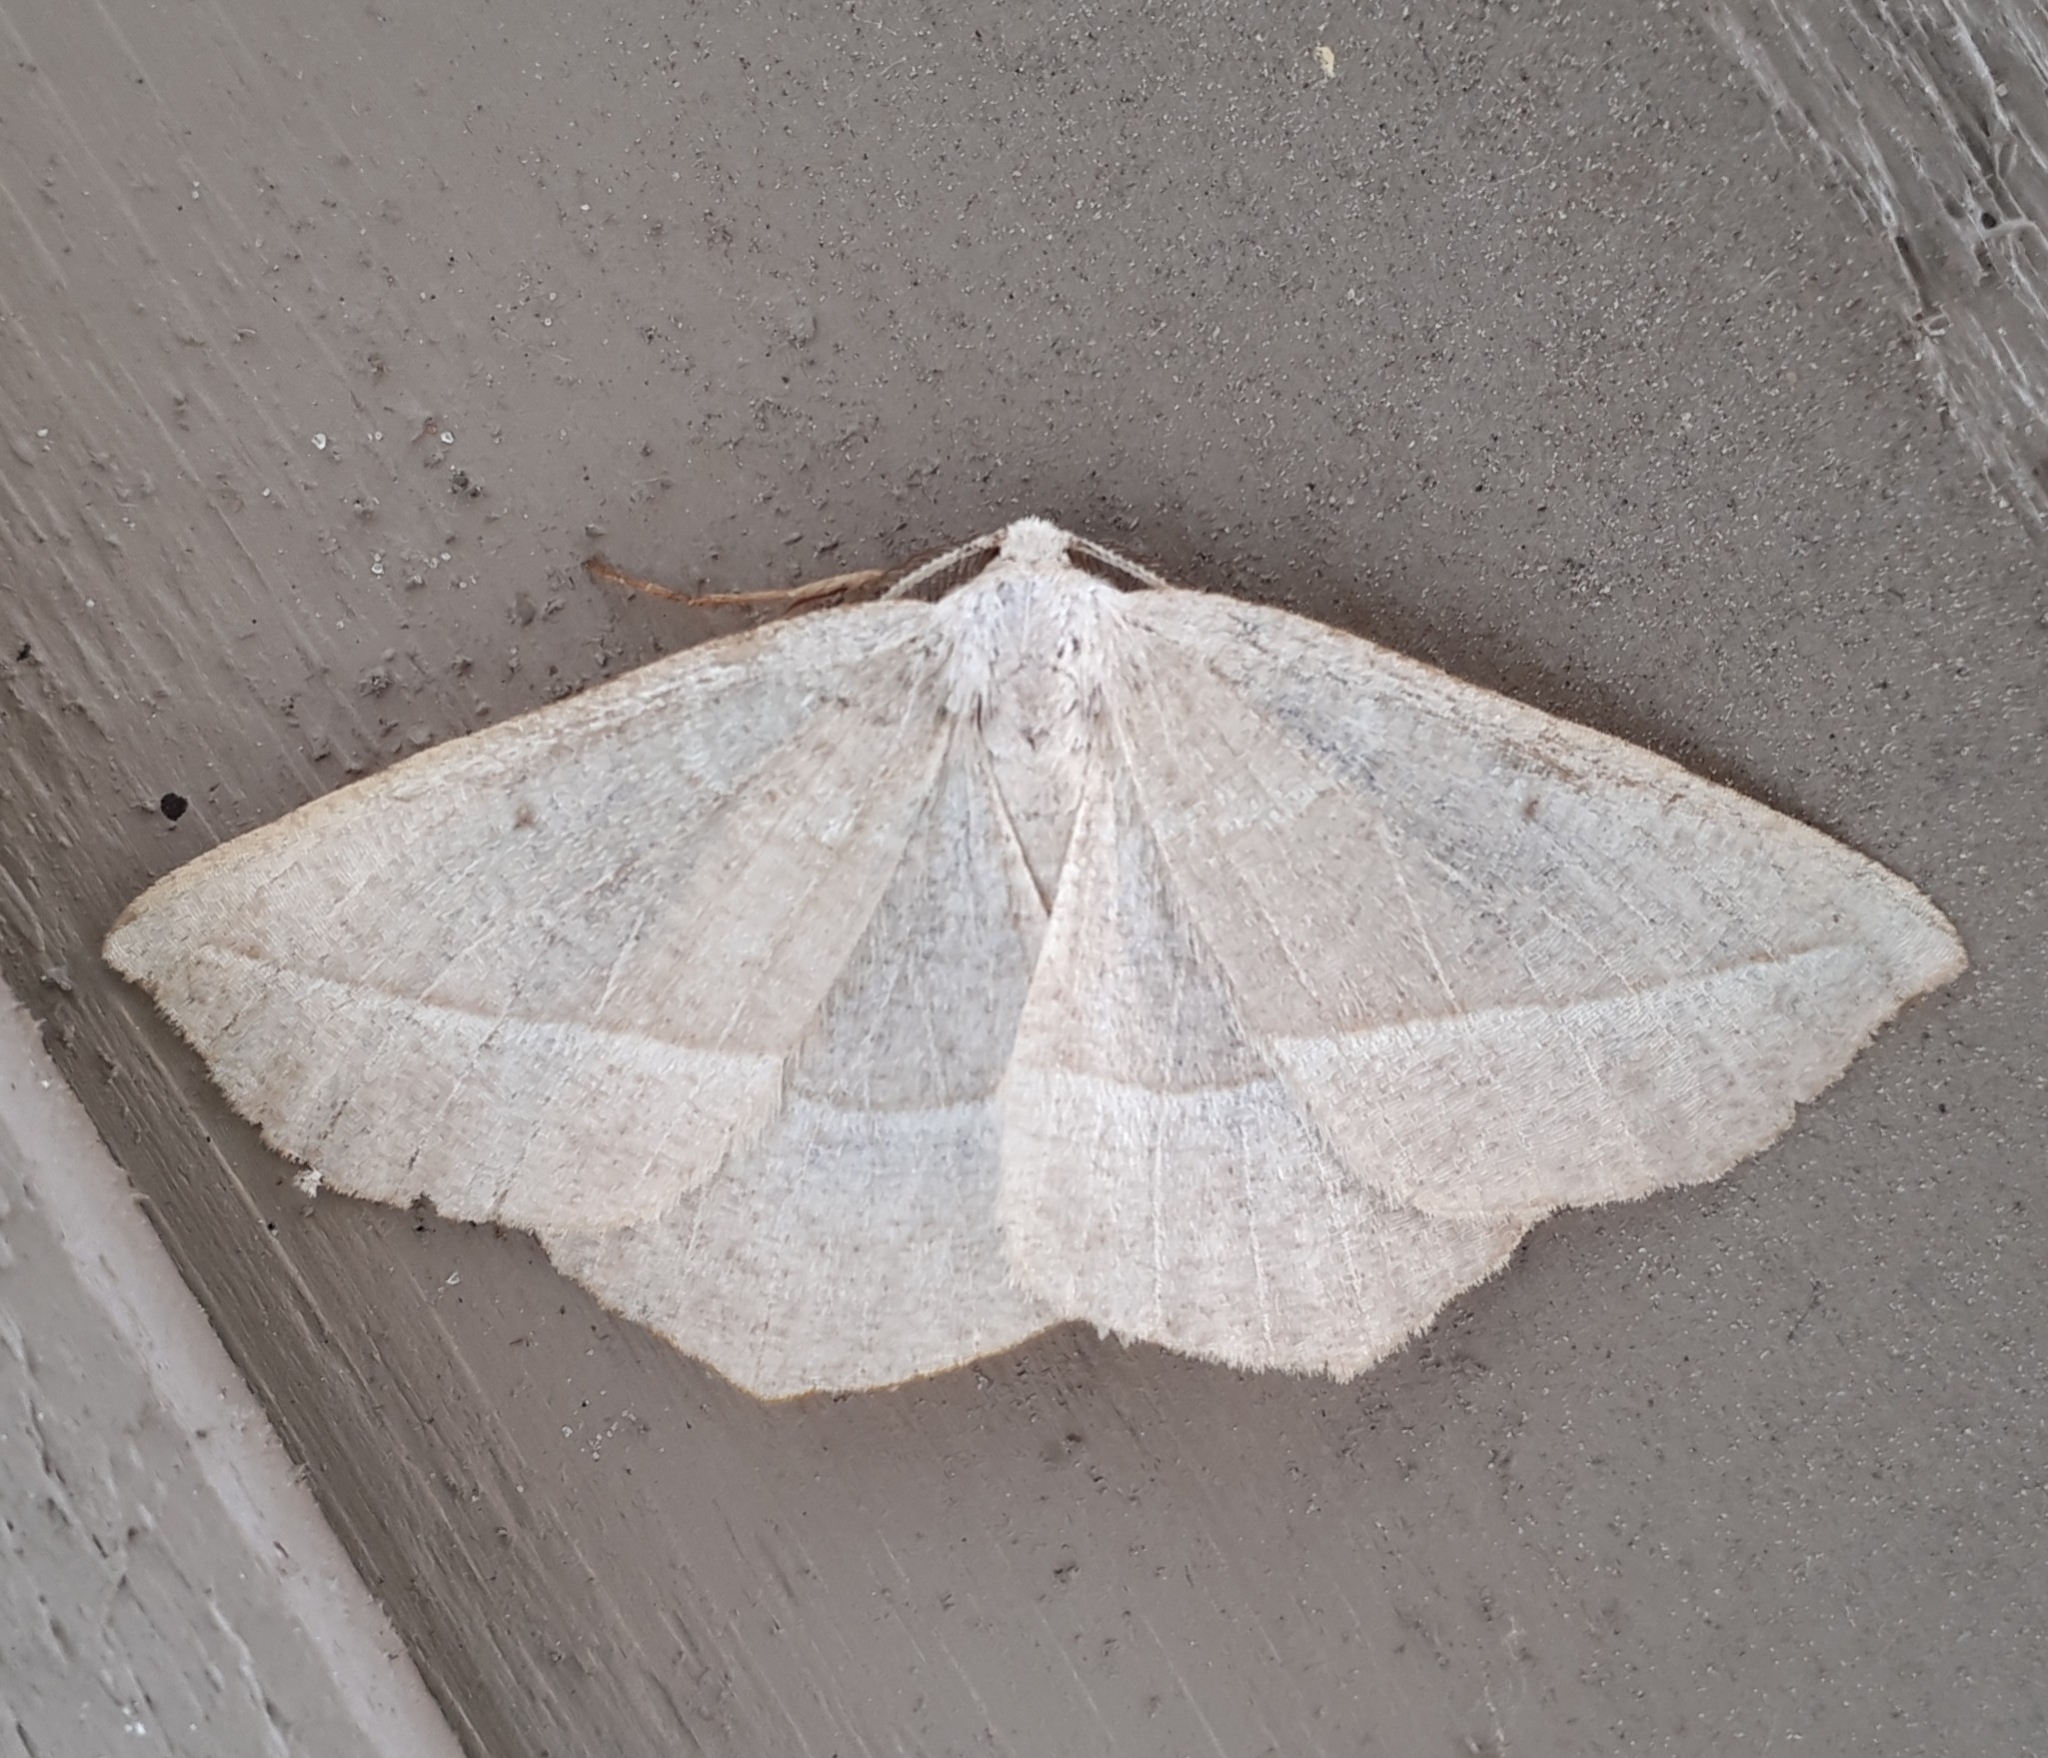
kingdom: Animalia
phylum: Arthropoda
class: Insecta
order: Lepidoptera
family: Geometridae
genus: Eusarca
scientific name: Eusarca confusaria
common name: Confused eusarca
